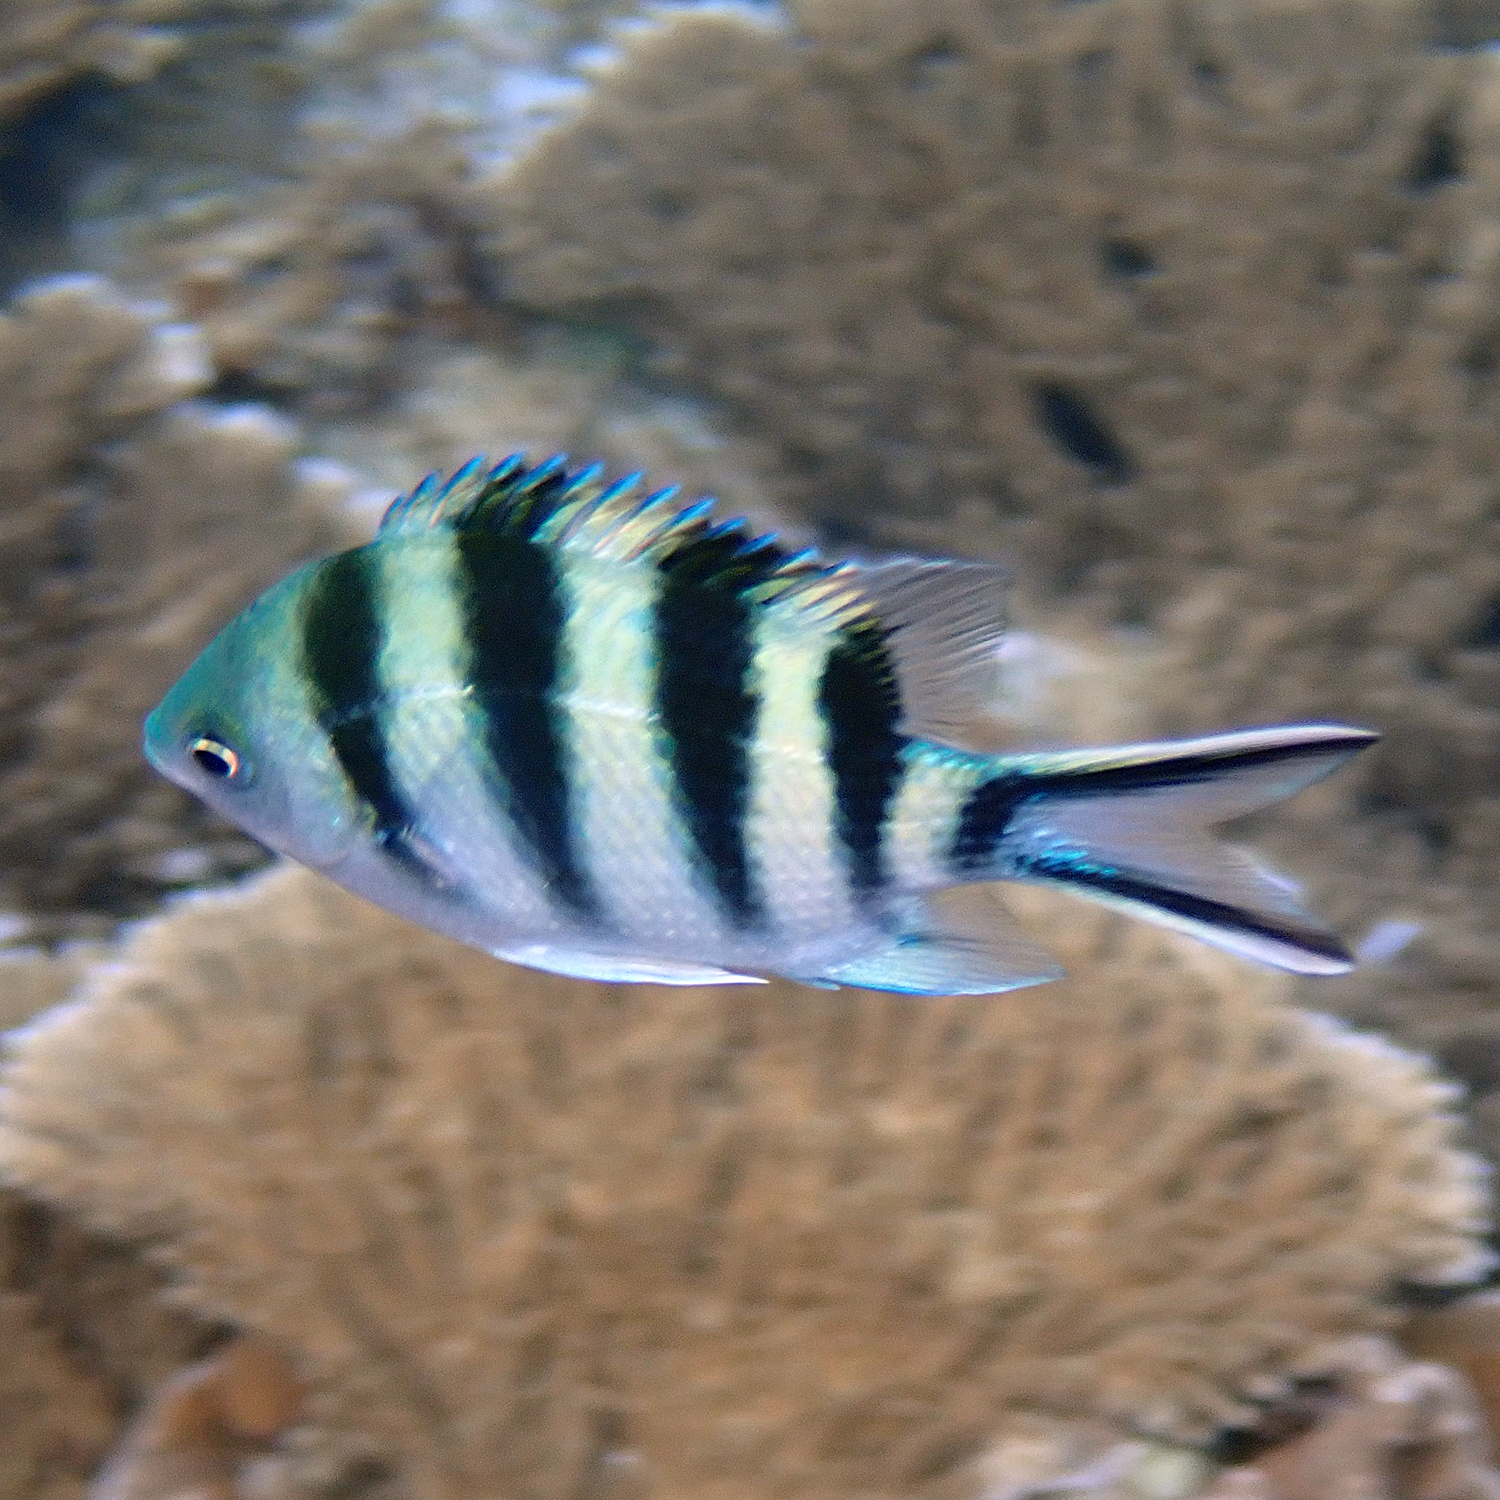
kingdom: Animalia
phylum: Chordata
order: Perciformes
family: Pomacentridae
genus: Abudefduf
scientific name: Abudefduf sexfasciatus
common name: Scissortail sergeant
